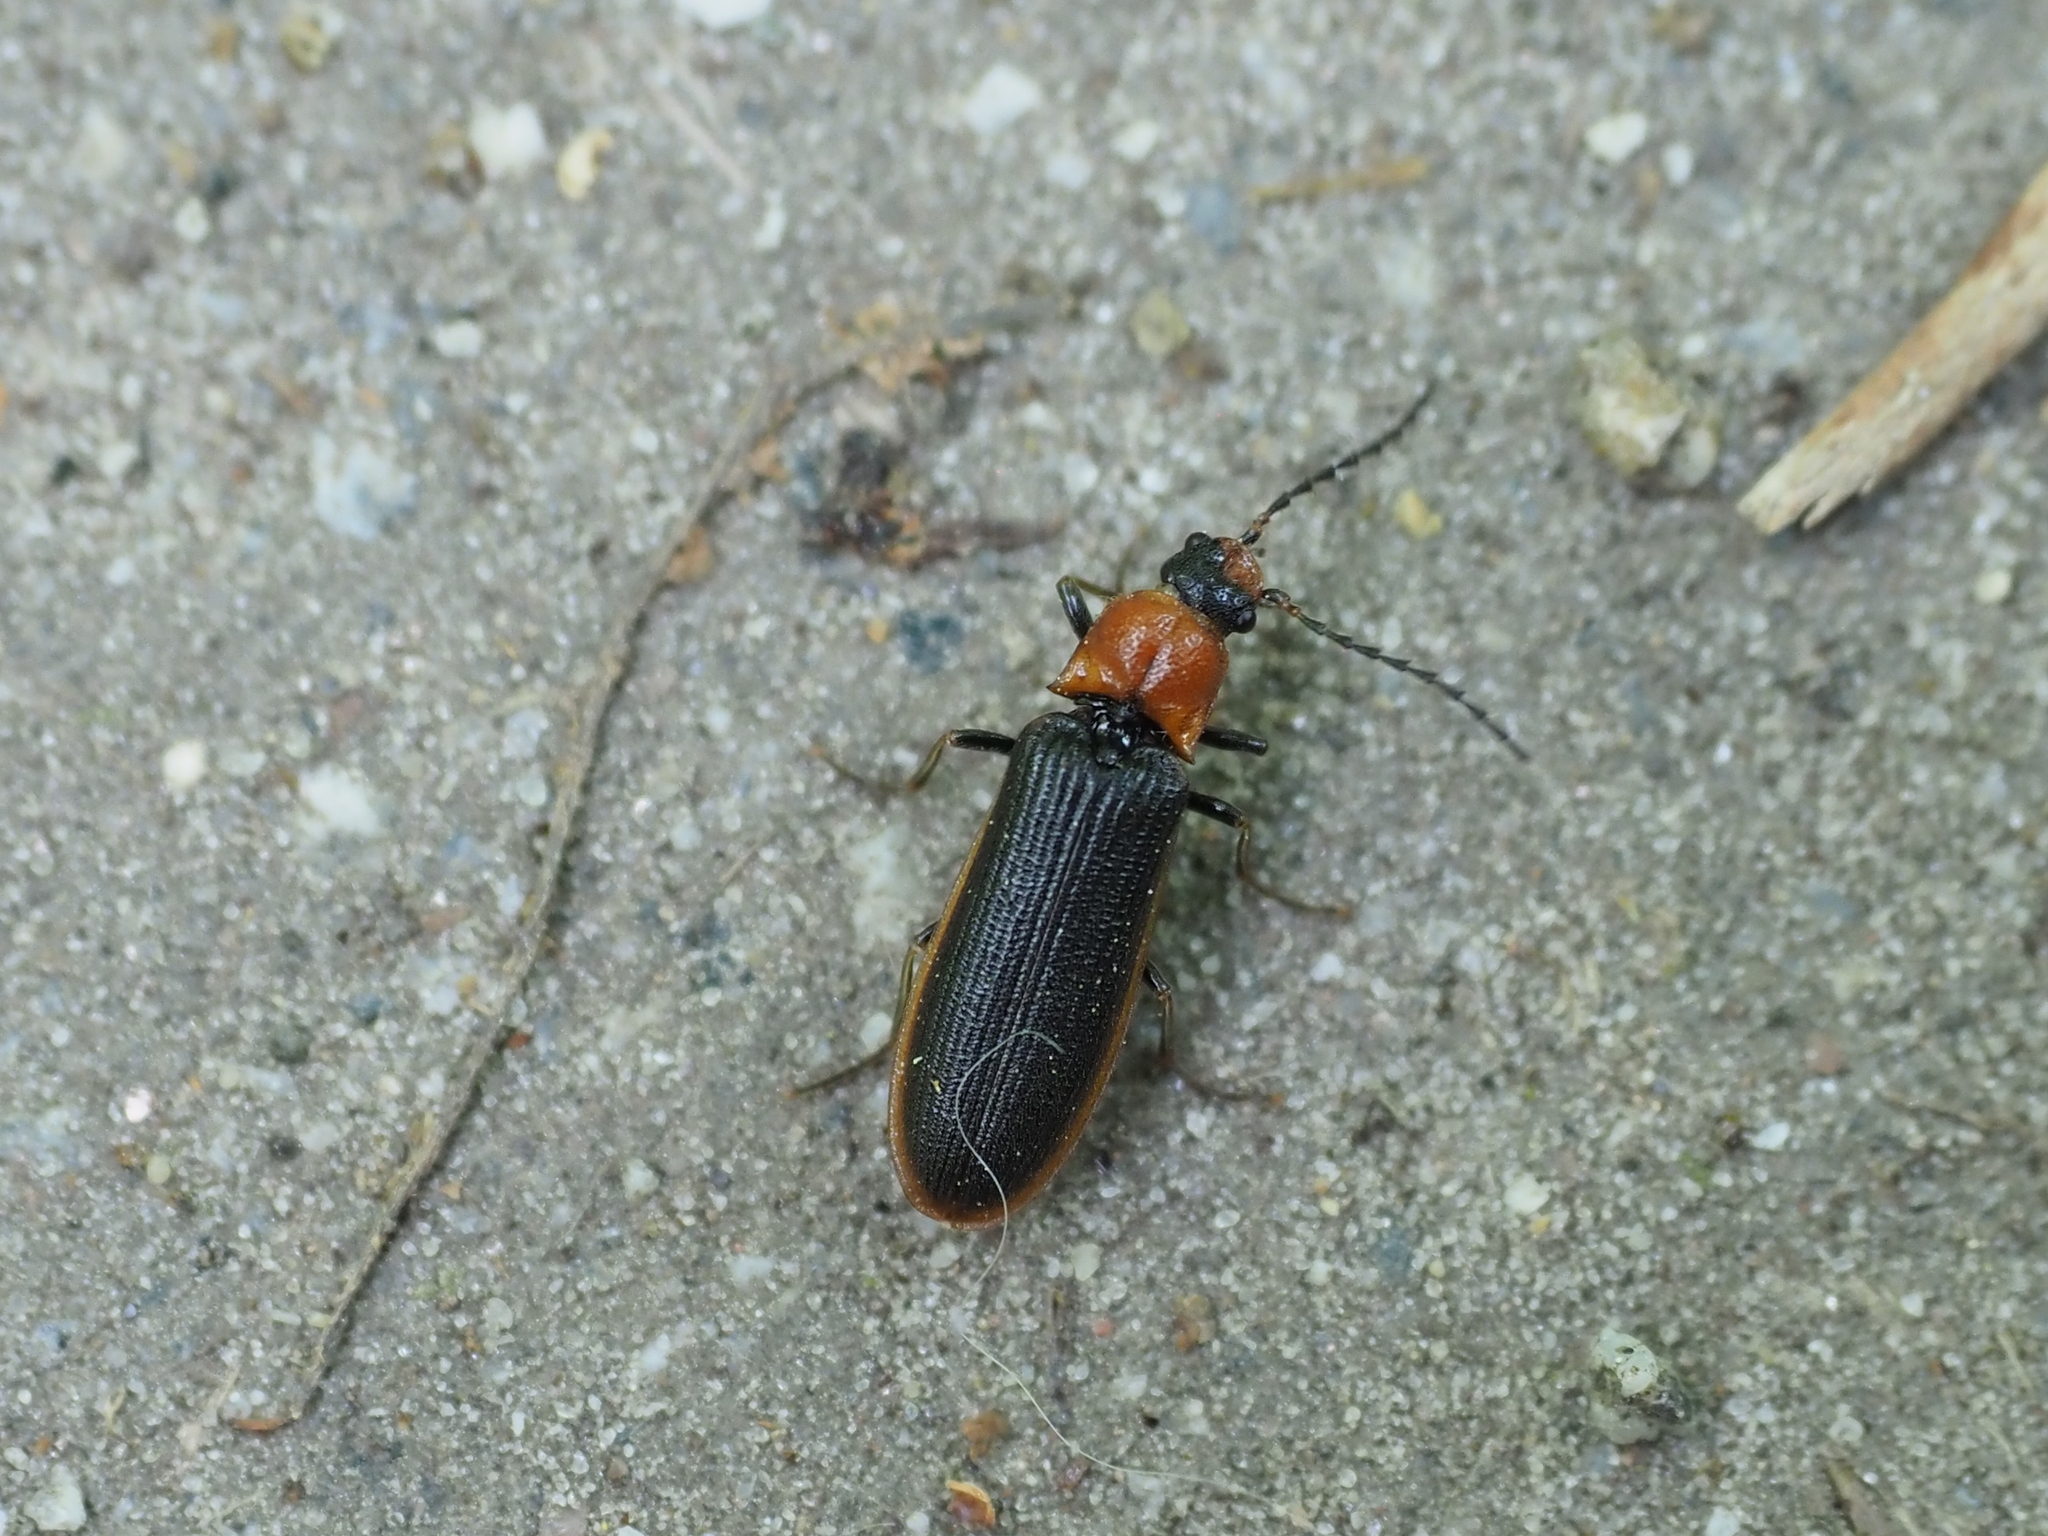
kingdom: Animalia
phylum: Arthropoda
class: Insecta
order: Coleoptera
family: Elateridae
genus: Denticollis
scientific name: Denticollis linearis
